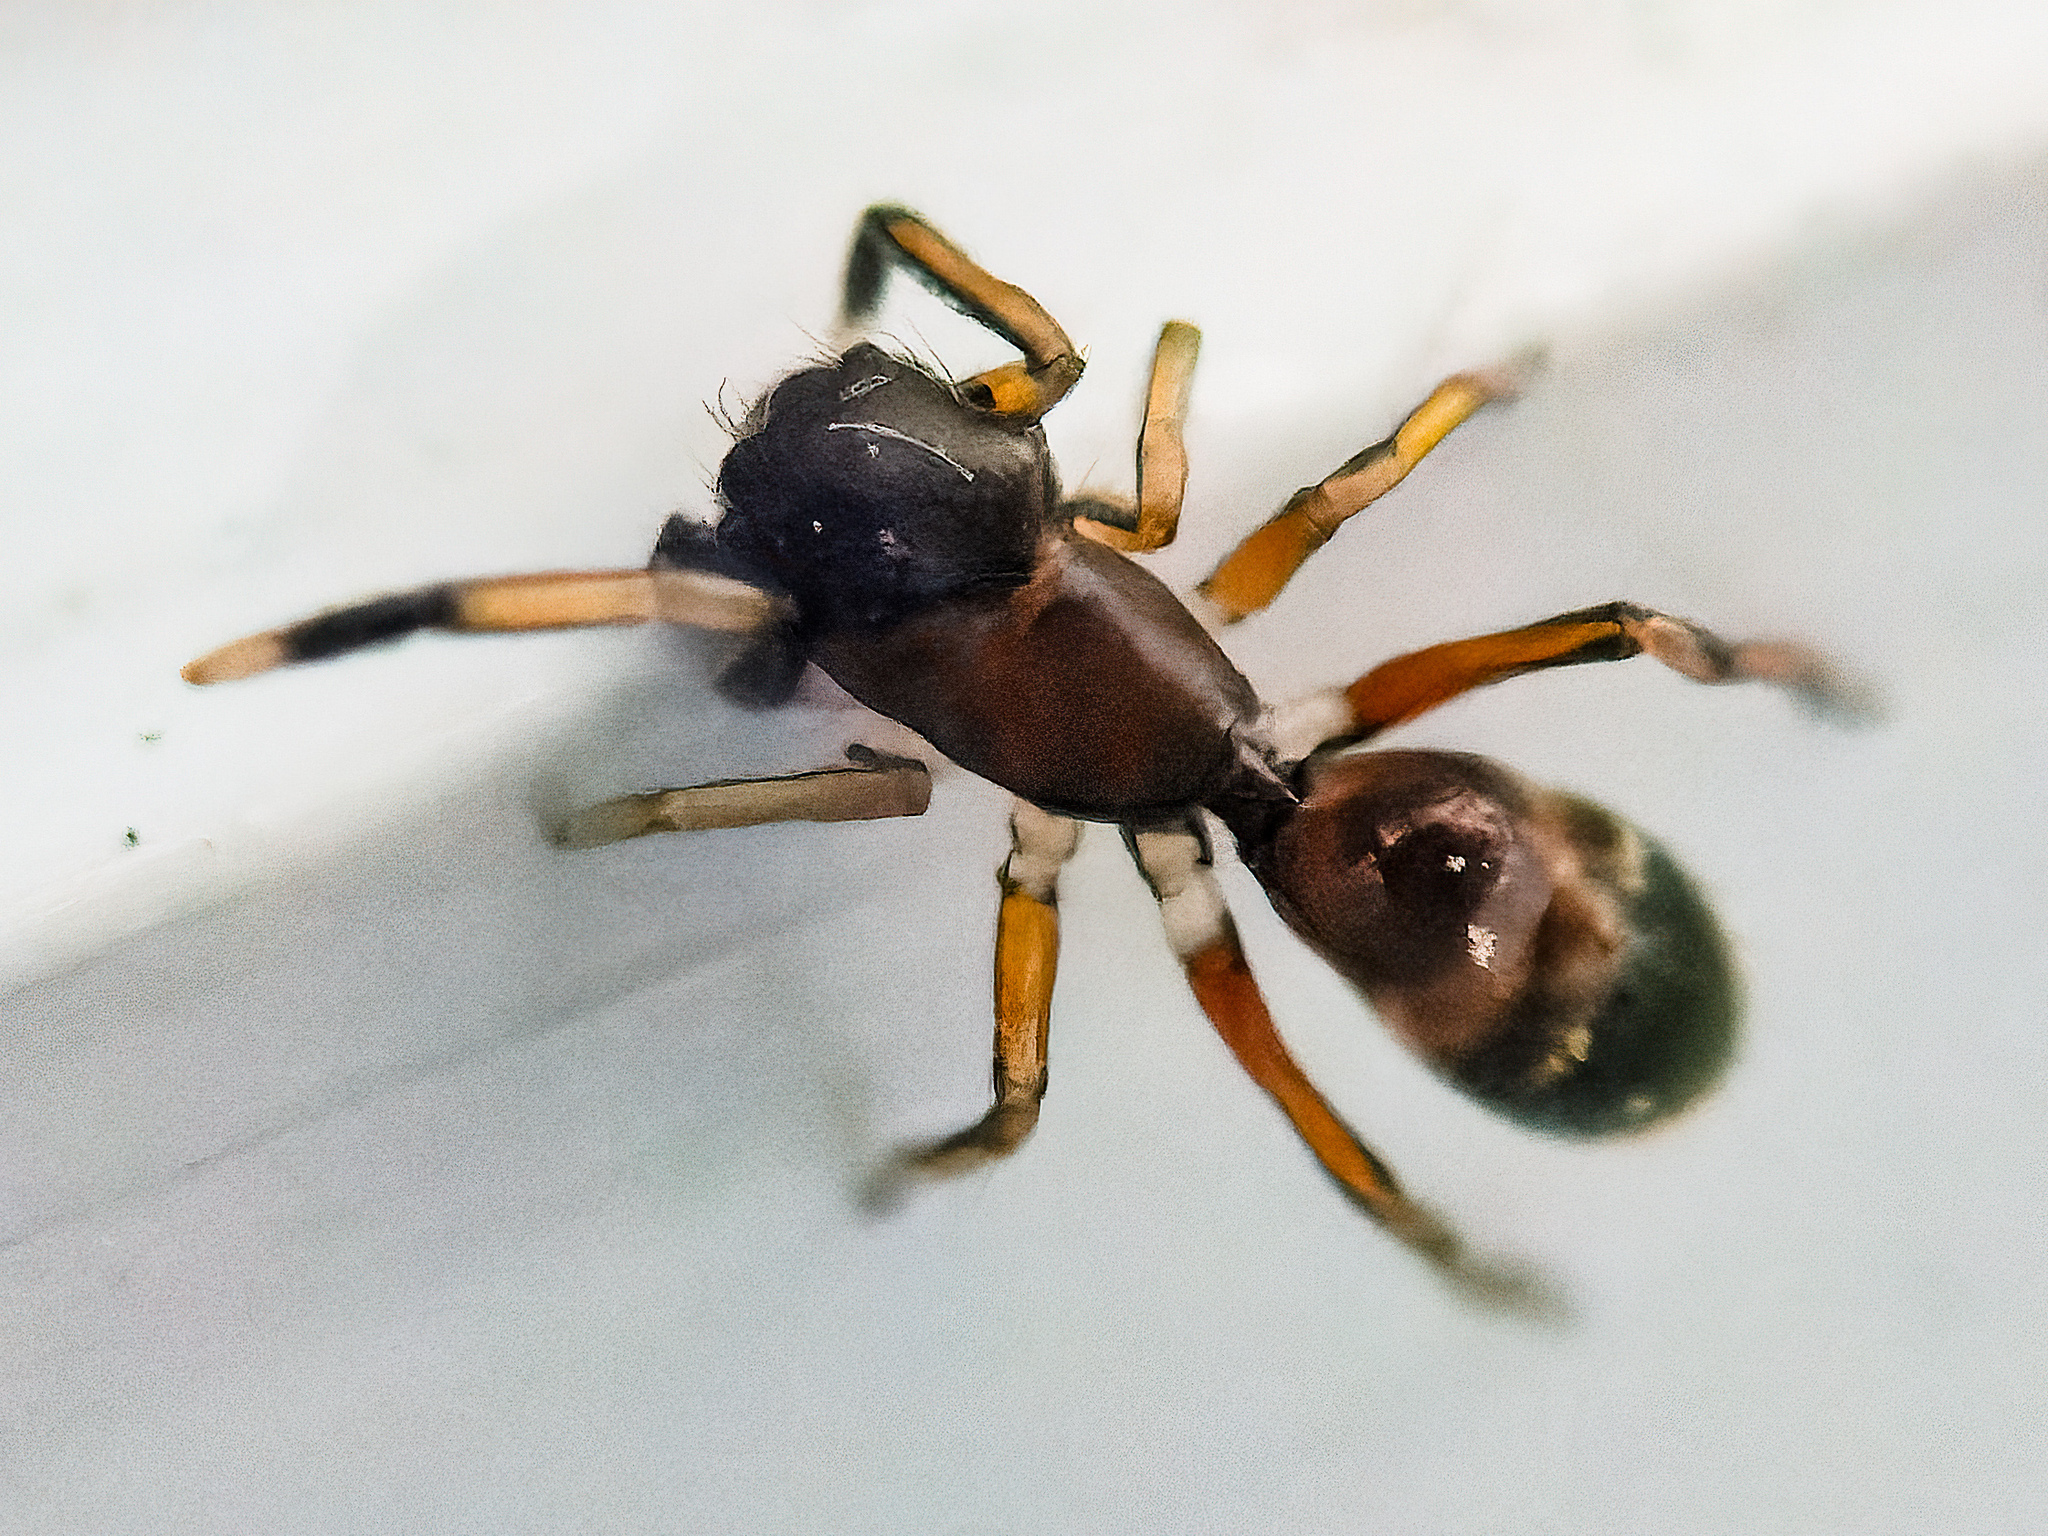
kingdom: Animalia
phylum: Arthropoda
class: Arachnida
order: Araneae
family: Salticidae
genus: Myrmarachne
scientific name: Myrmarachne formicaria
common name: Ant mimic jumping spider
